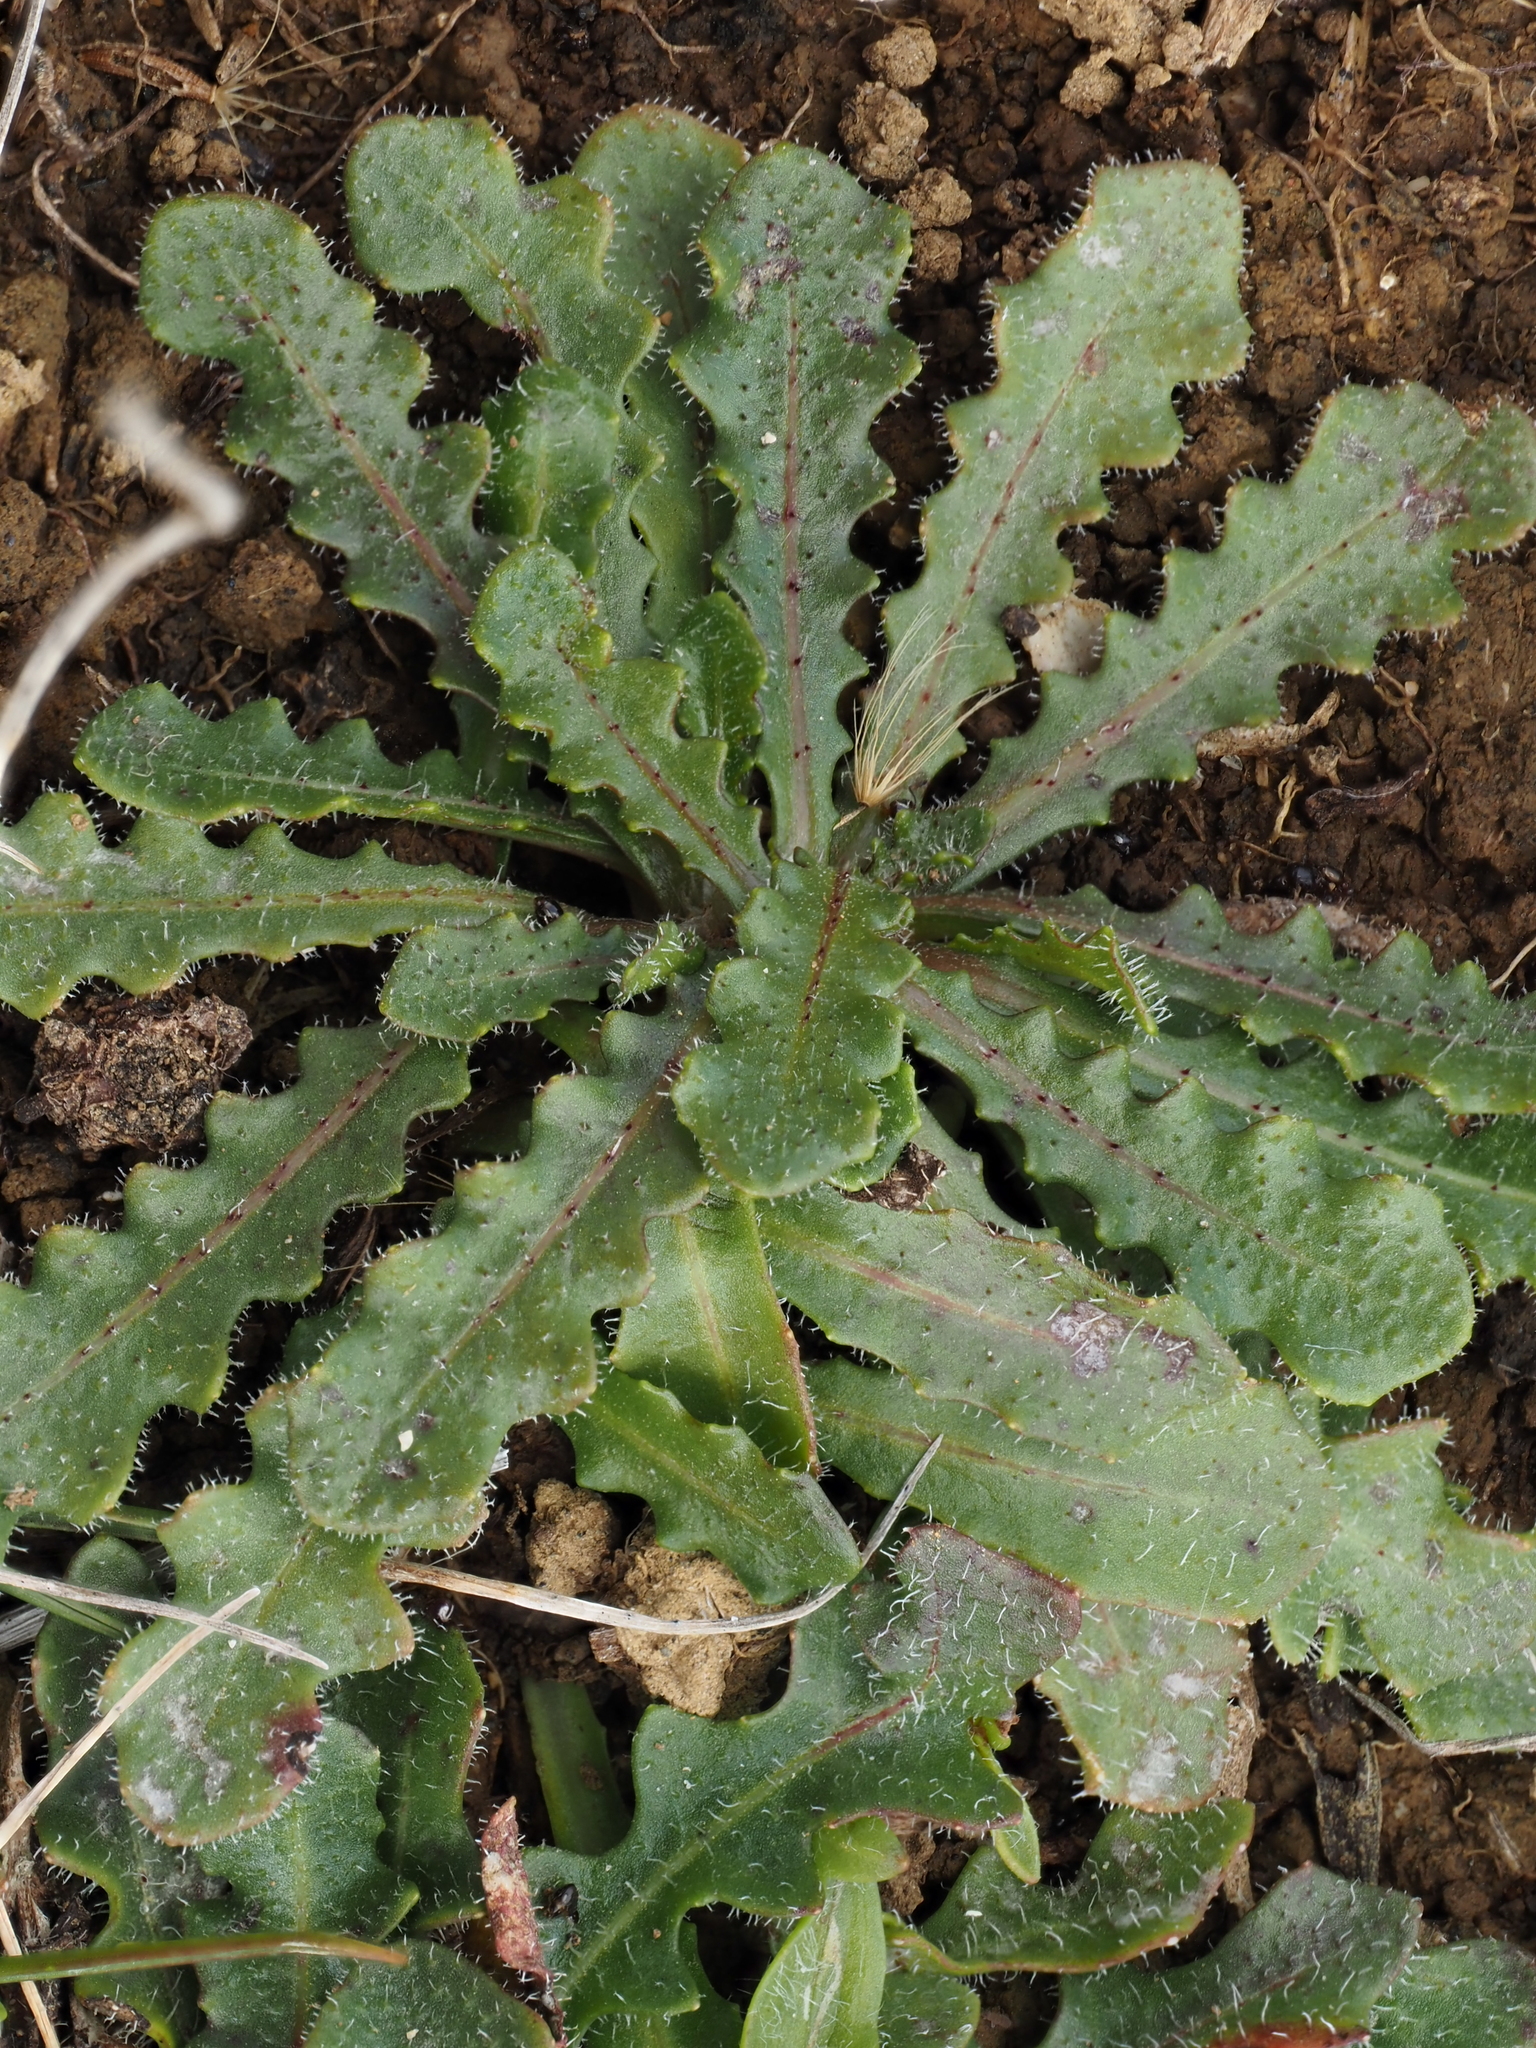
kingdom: Plantae
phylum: Tracheophyta
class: Magnoliopsida
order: Asterales
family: Asteraceae
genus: Hypochaeris
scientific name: Hypochaeris radicata
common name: Flatweed
